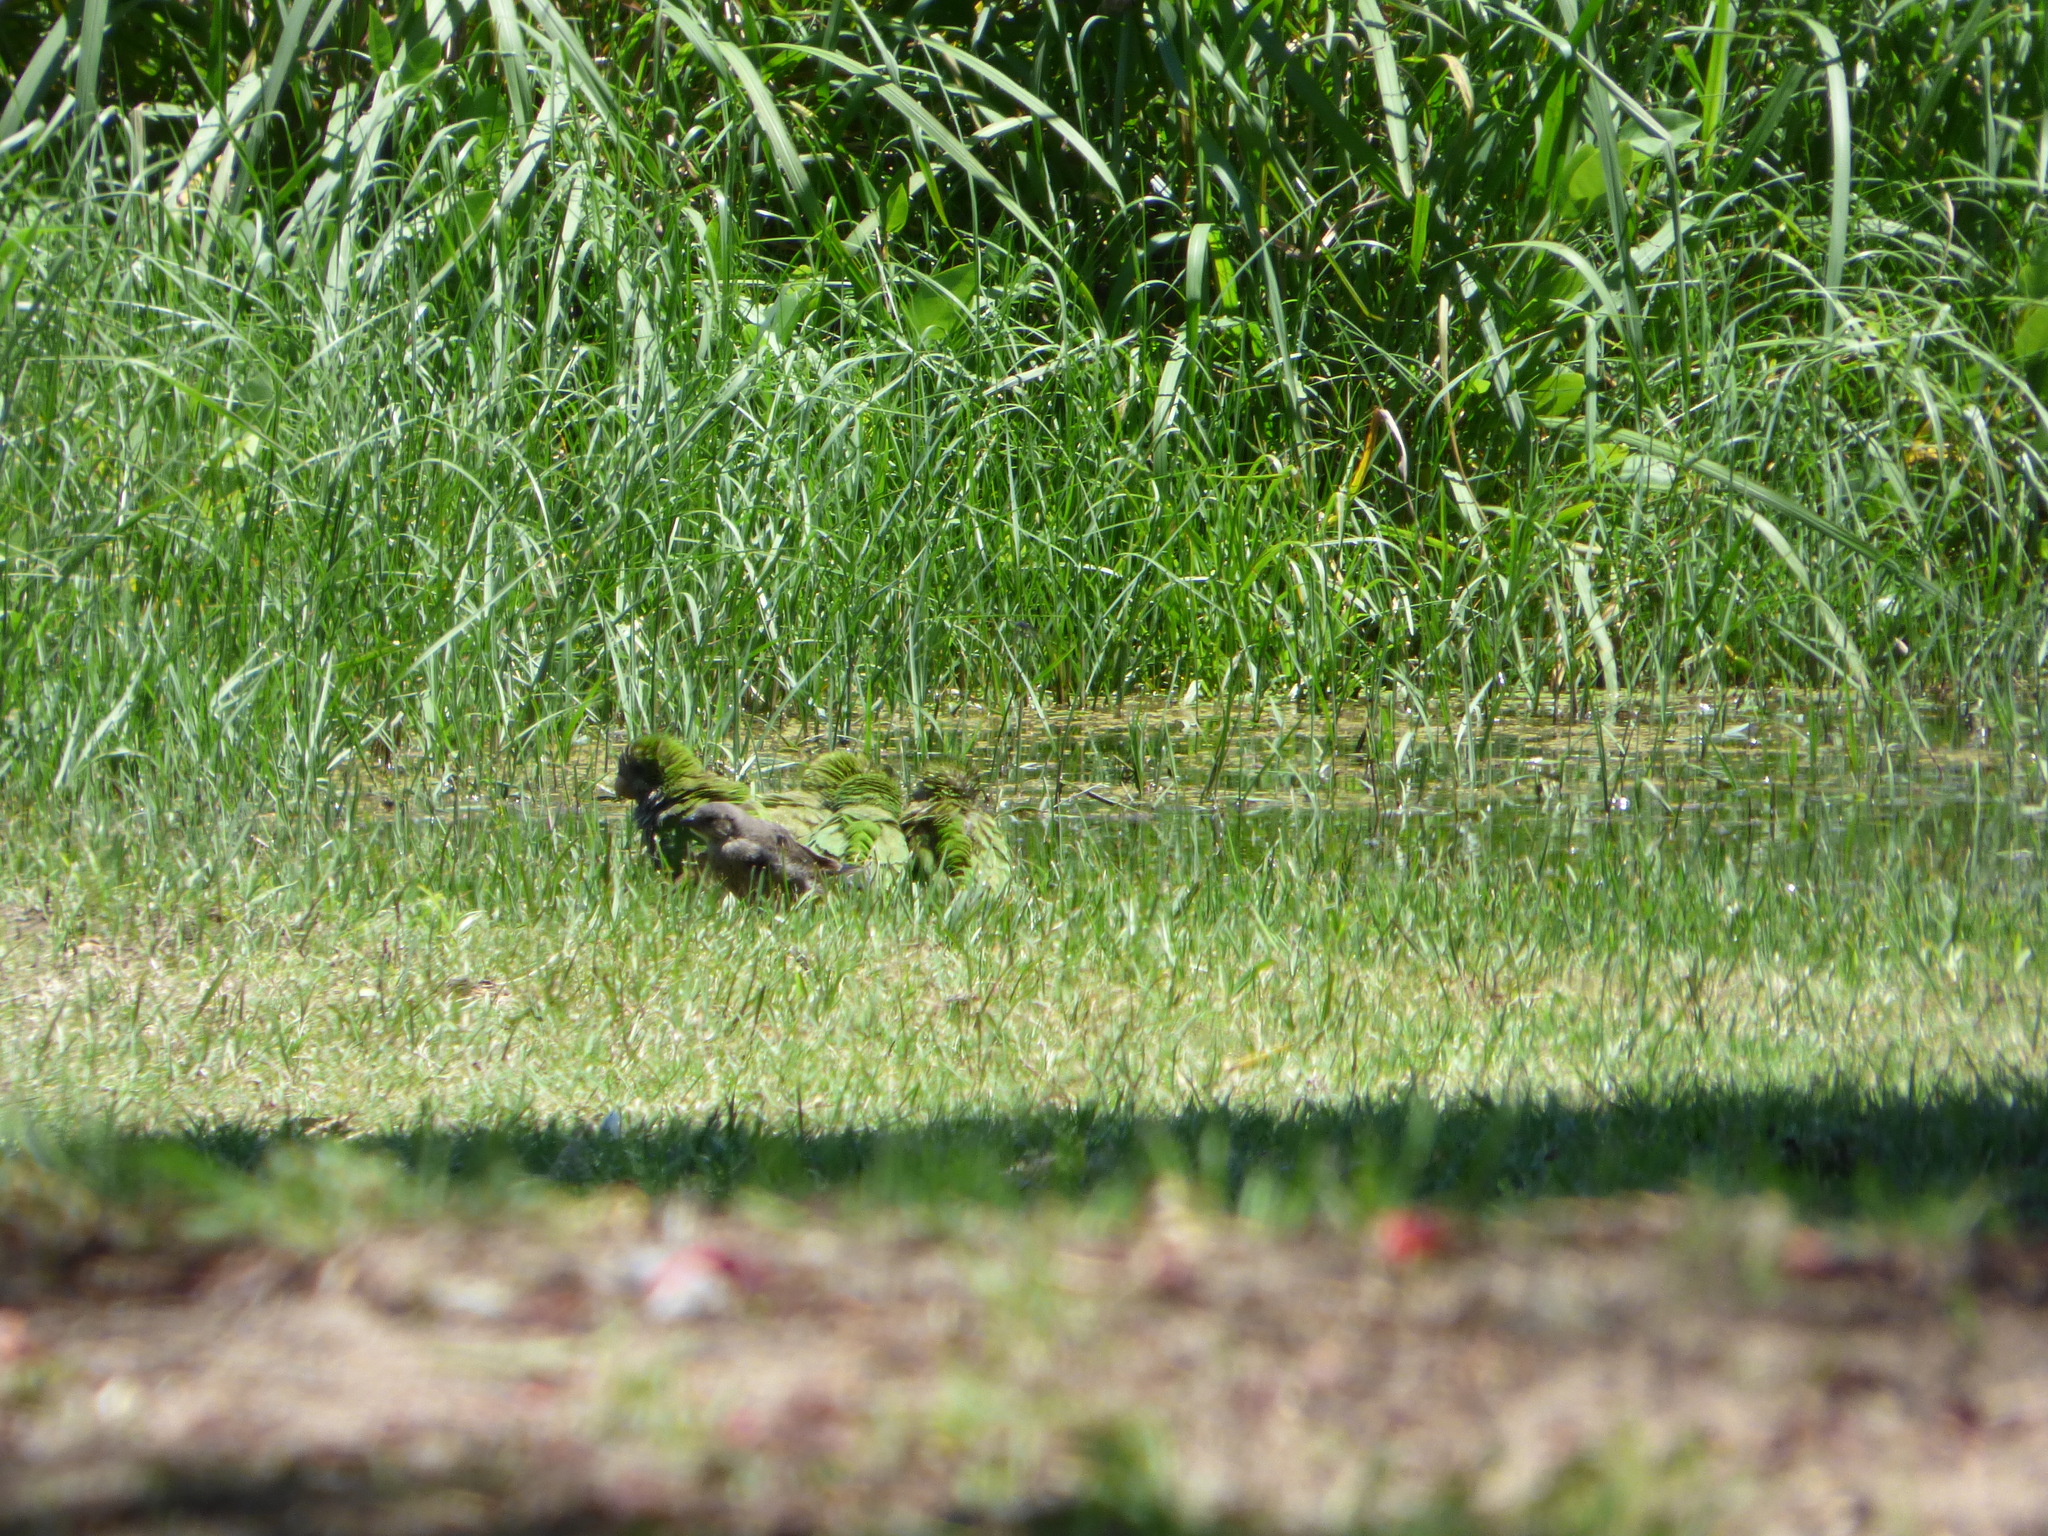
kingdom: Animalia
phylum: Chordata
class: Aves
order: Passeriformes
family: Icteridae
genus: Molothrus
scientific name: Molothrus bonariensis
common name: Shiny cowbird
